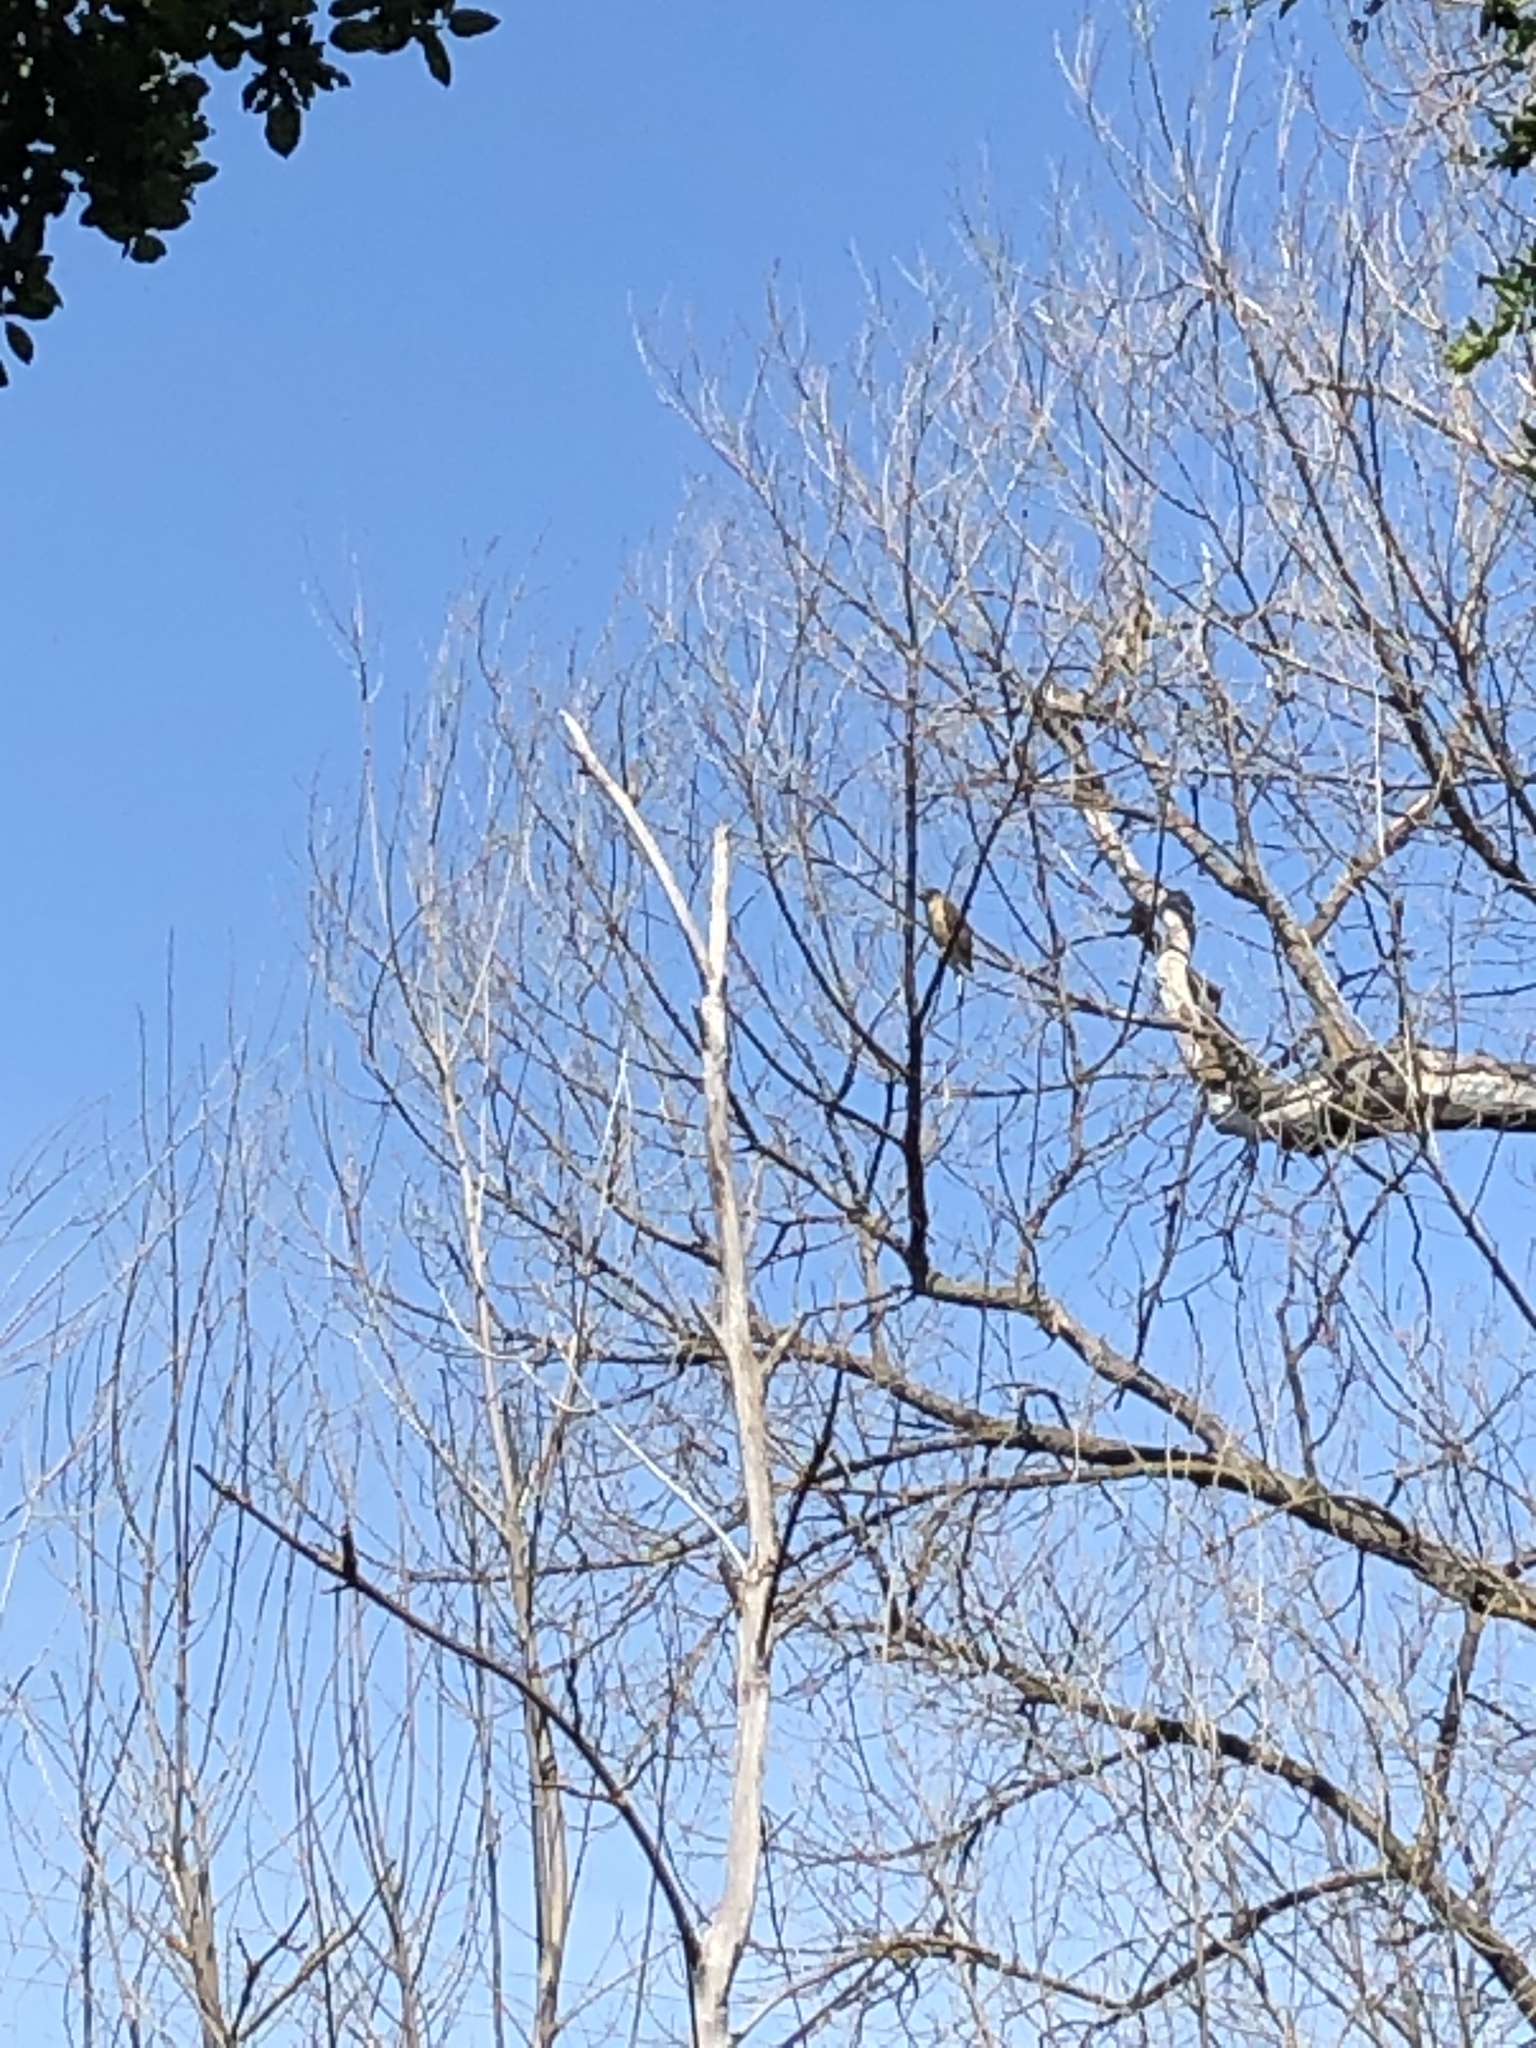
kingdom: Animalia
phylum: Chordata
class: Aves
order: Accipitriformes
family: Accipitridae
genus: Accipiter
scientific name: Accipiter cooperii
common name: Cooper's hawk
